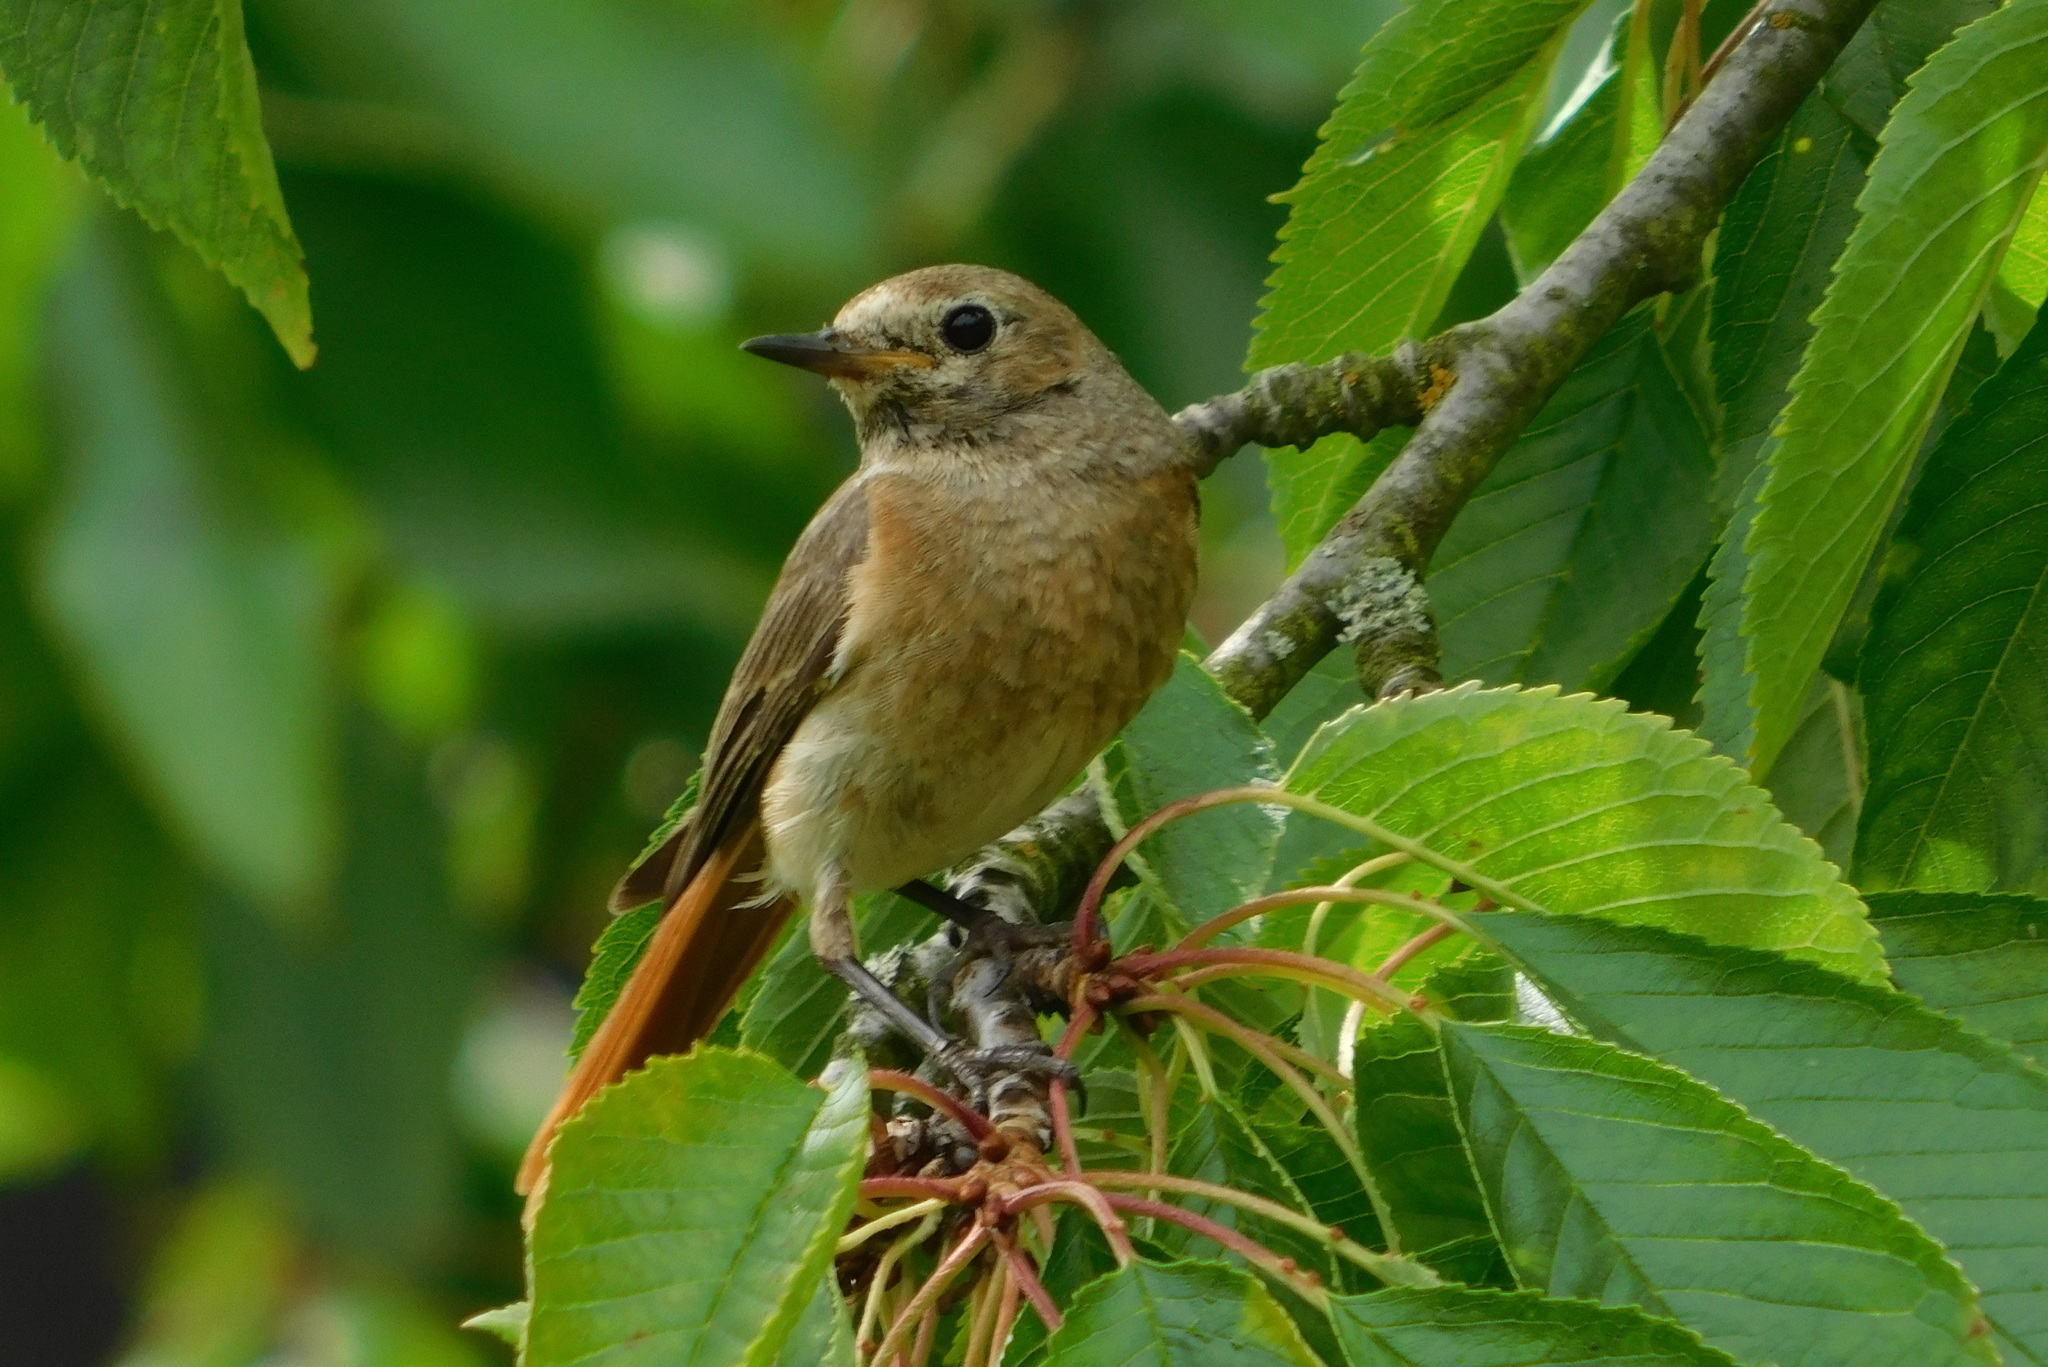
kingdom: Animalia
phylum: Chordata
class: Aves
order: Passeriformes
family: Muscicapidae
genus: Phoenicurus
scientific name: Phoenicurus phoenicurus
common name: Common redstart
